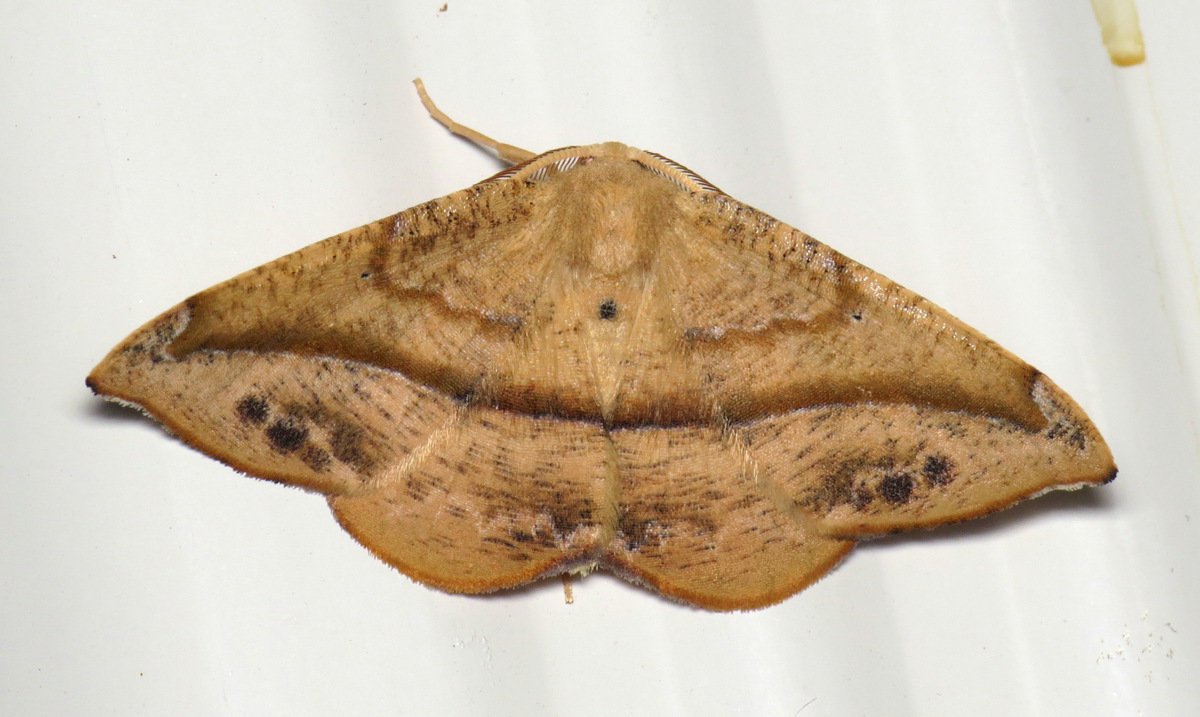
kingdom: Animalia
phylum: Arthropoda
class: Insecta
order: Lepidoptera
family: Geometridae
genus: Patalene
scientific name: Patalene olyzonaria
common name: Juniper geometer moth
